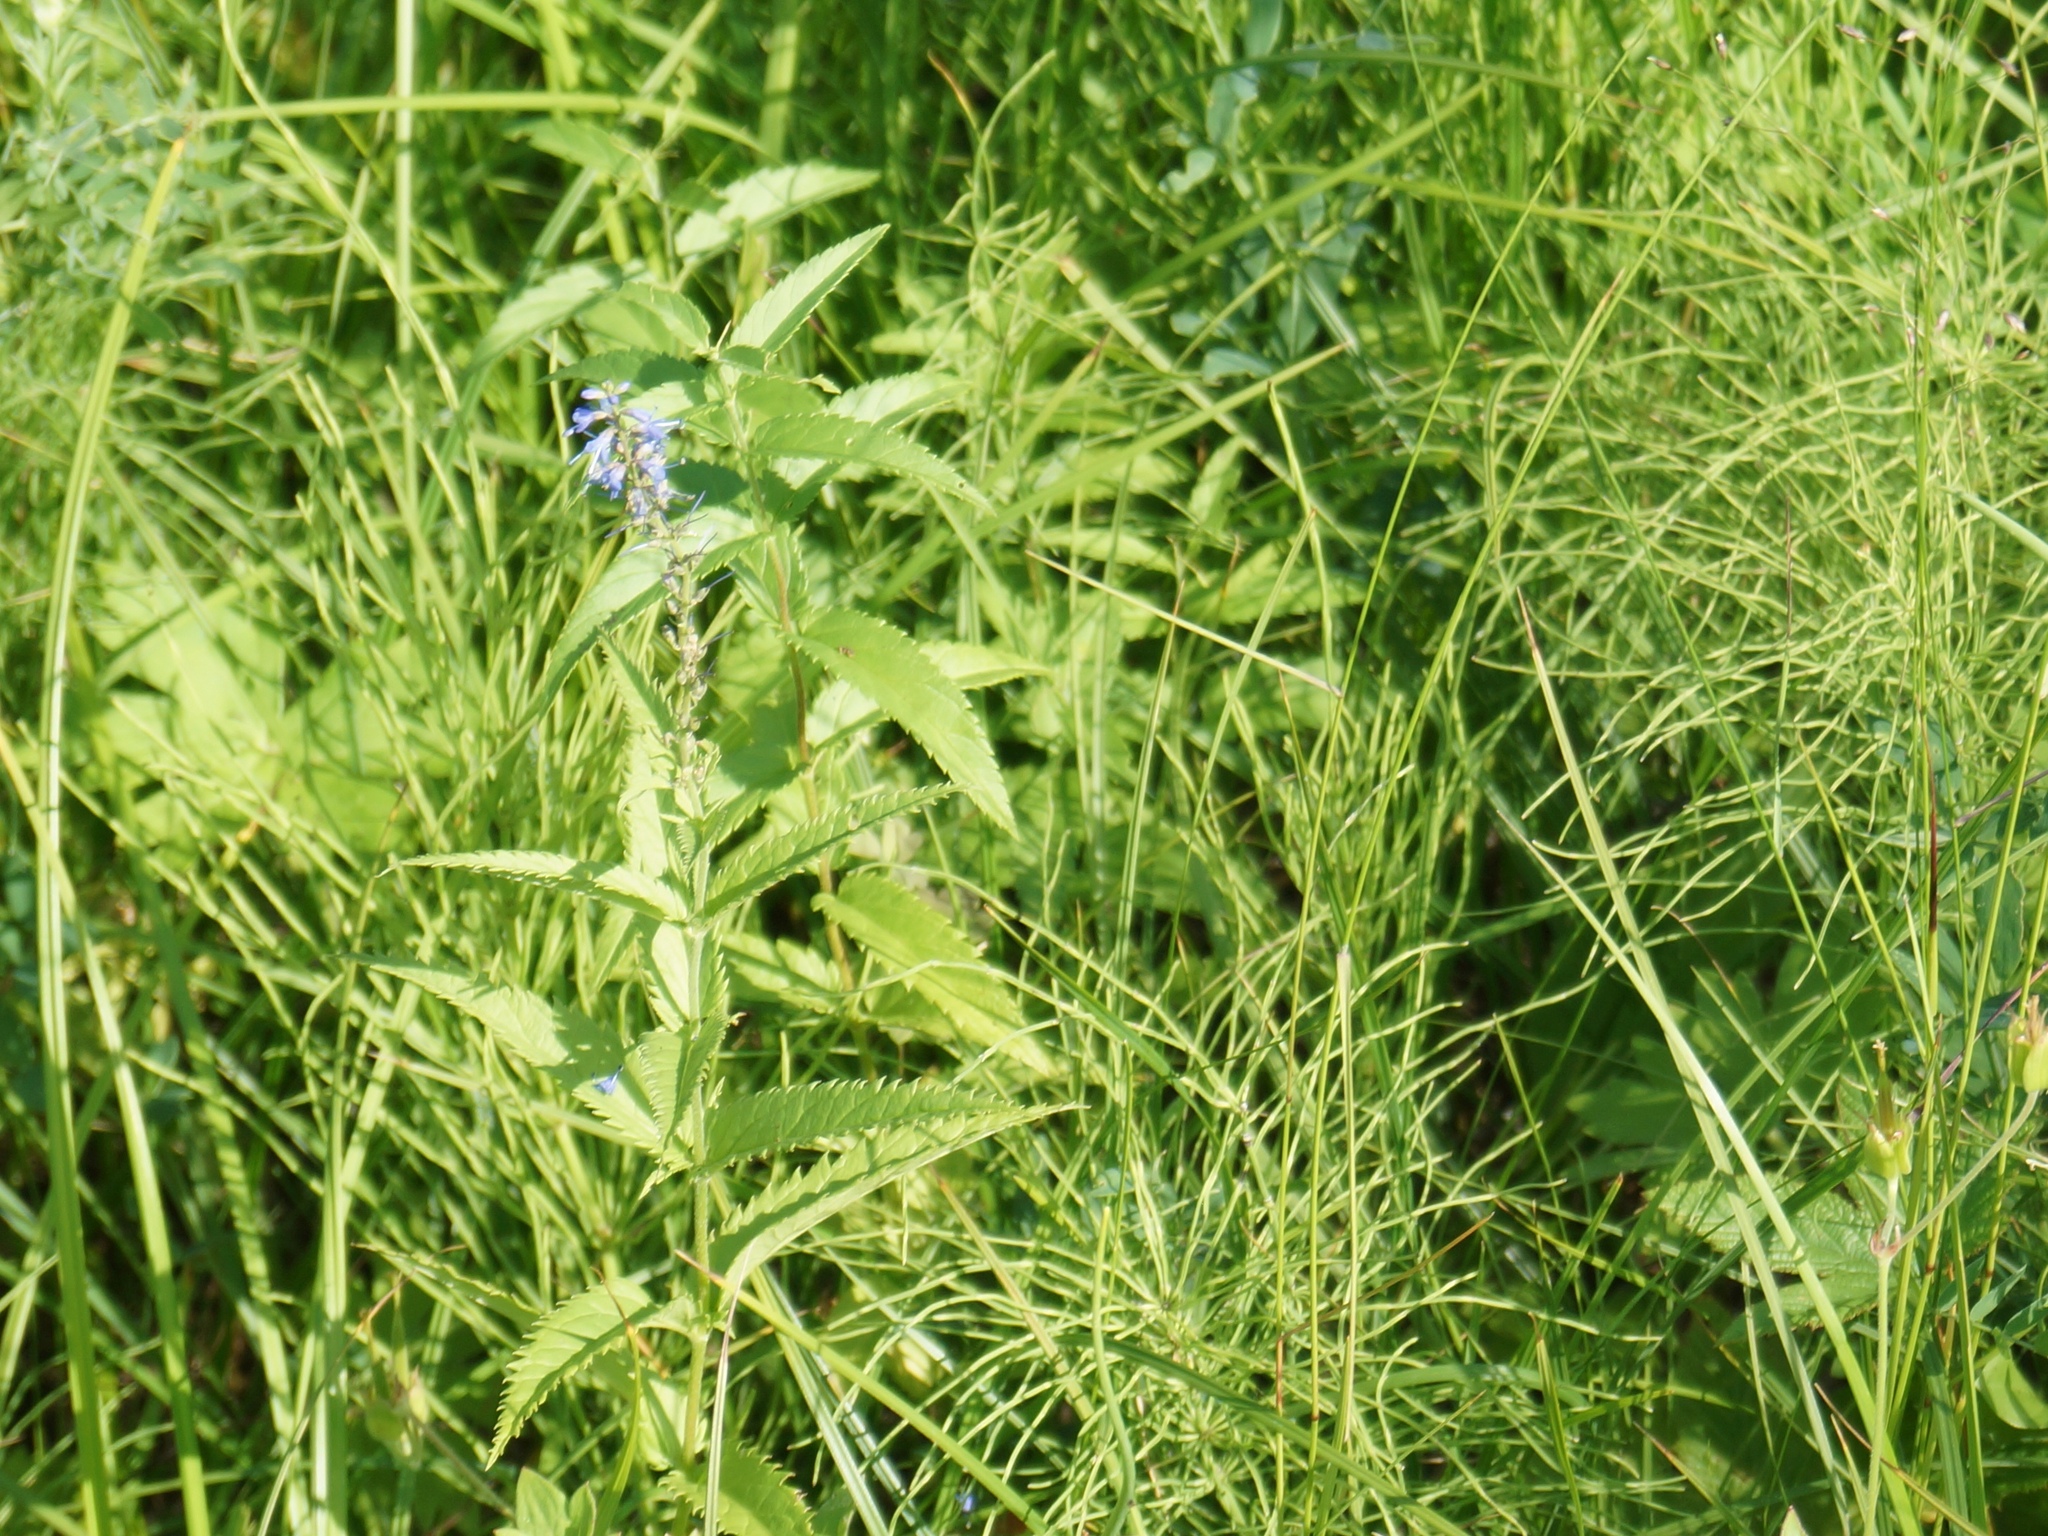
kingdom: Plantae
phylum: Tracheophyta
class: Magnoliopsida
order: Lamiales
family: Plantaginaceae
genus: Veronica
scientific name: Veronica longifolia
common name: Garden speedwell
